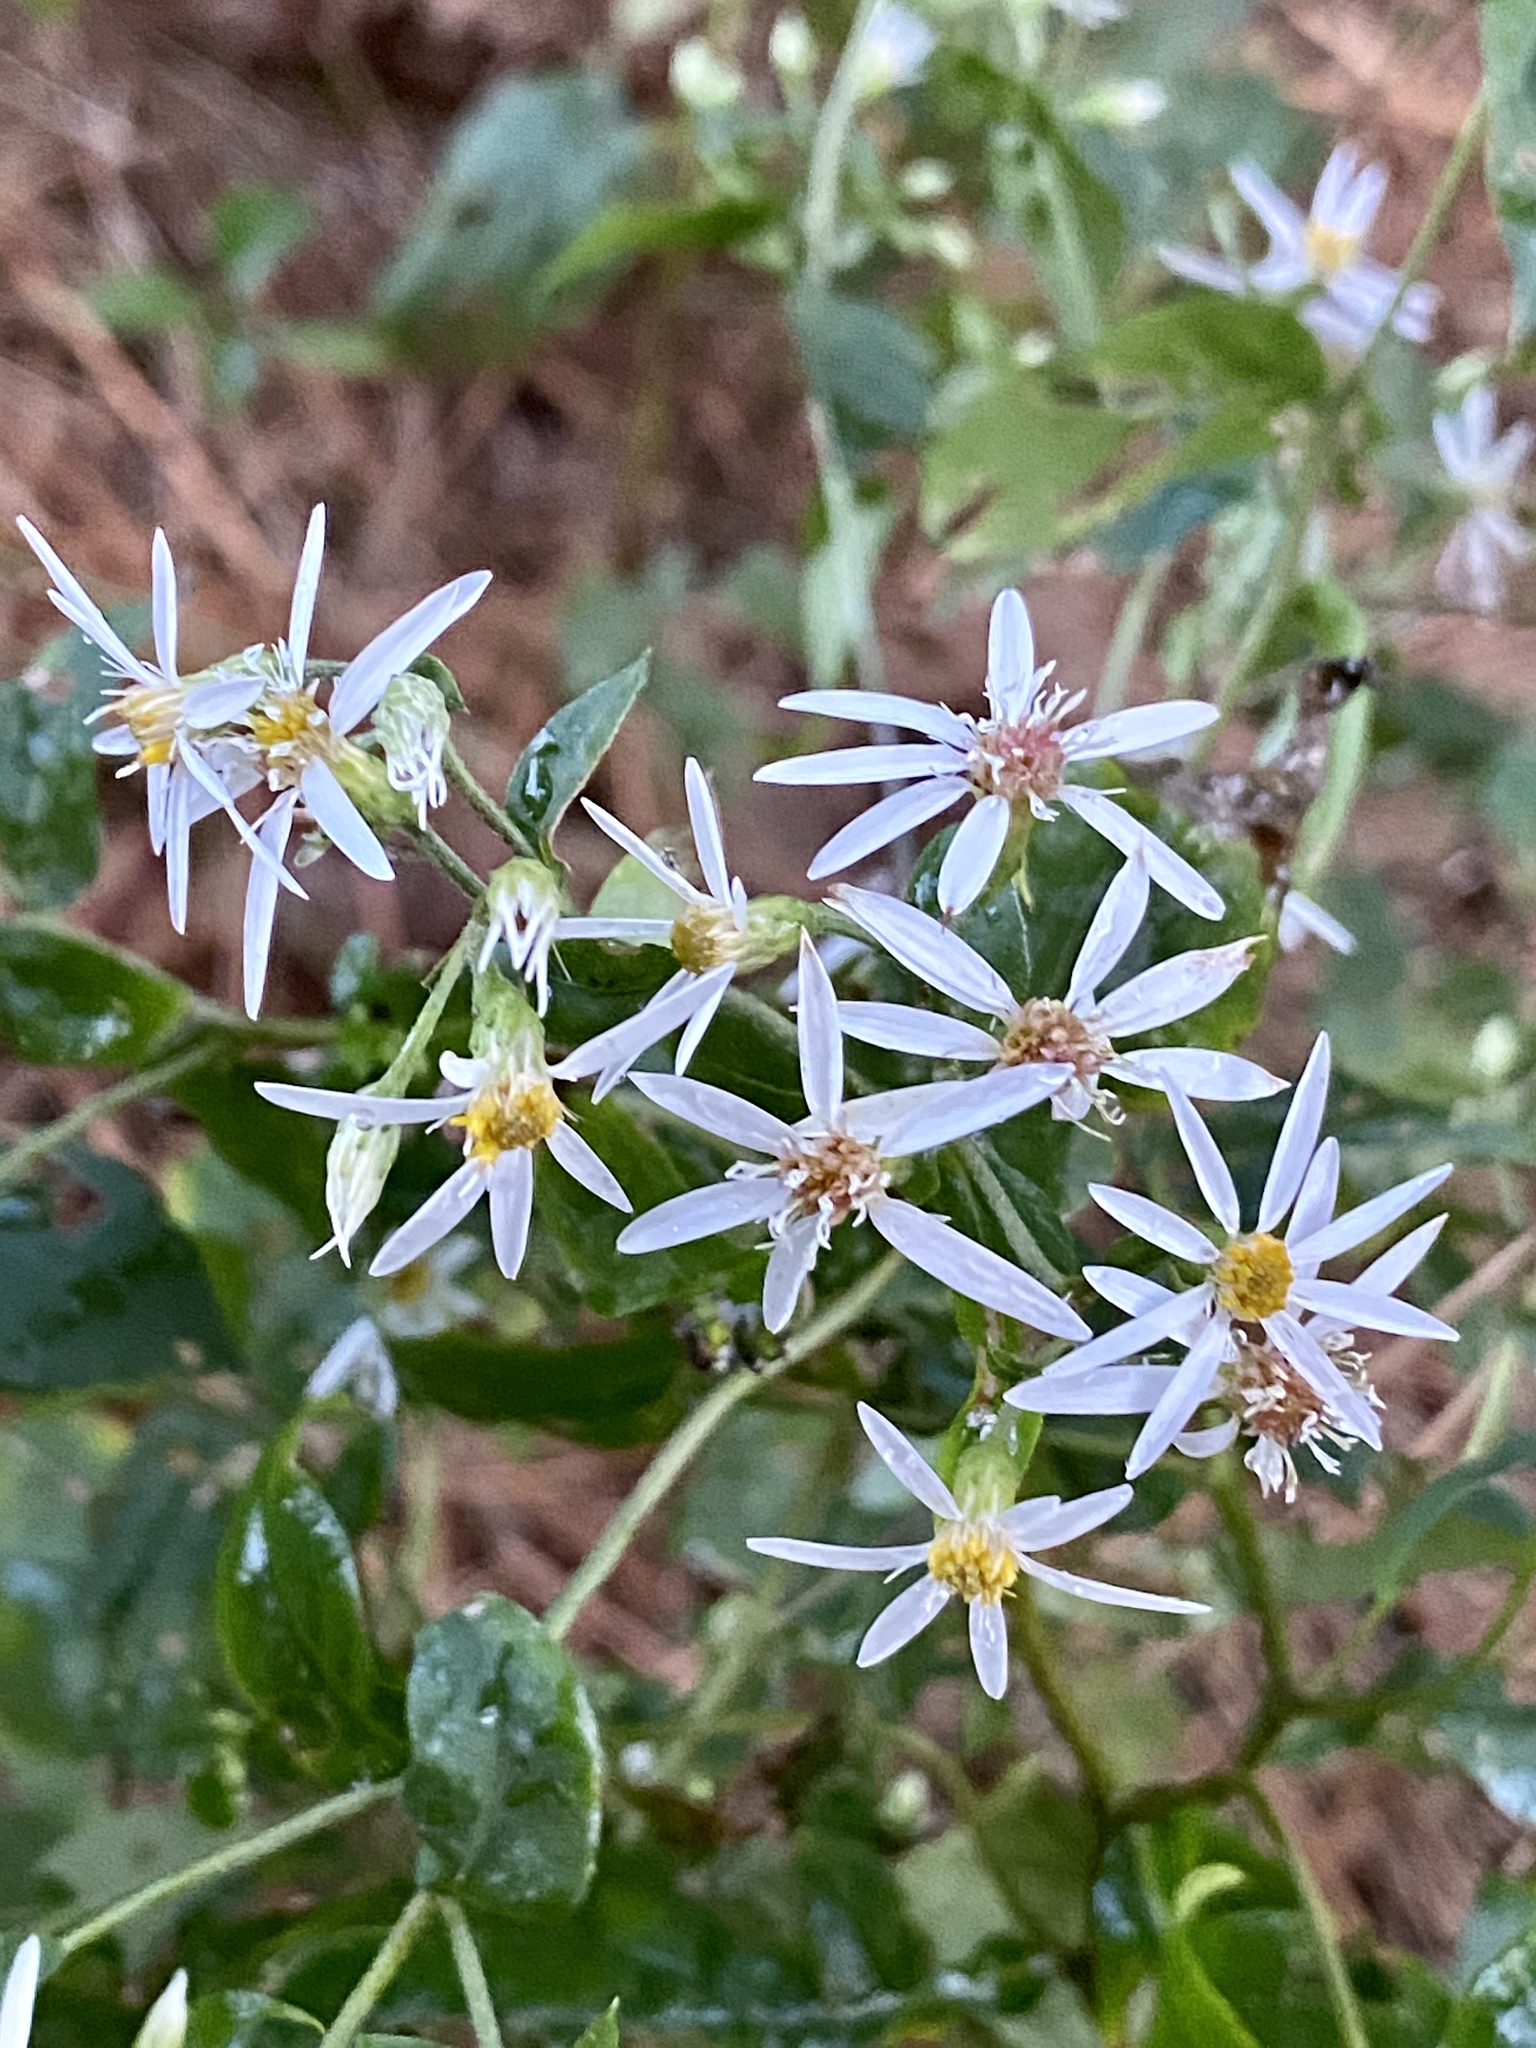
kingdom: Plantae
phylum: Tracheophyta
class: Magnoliopsida
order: Asterales
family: Asteraceae
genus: Eurybia
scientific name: Eurybia divaricata
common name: White wood aster
